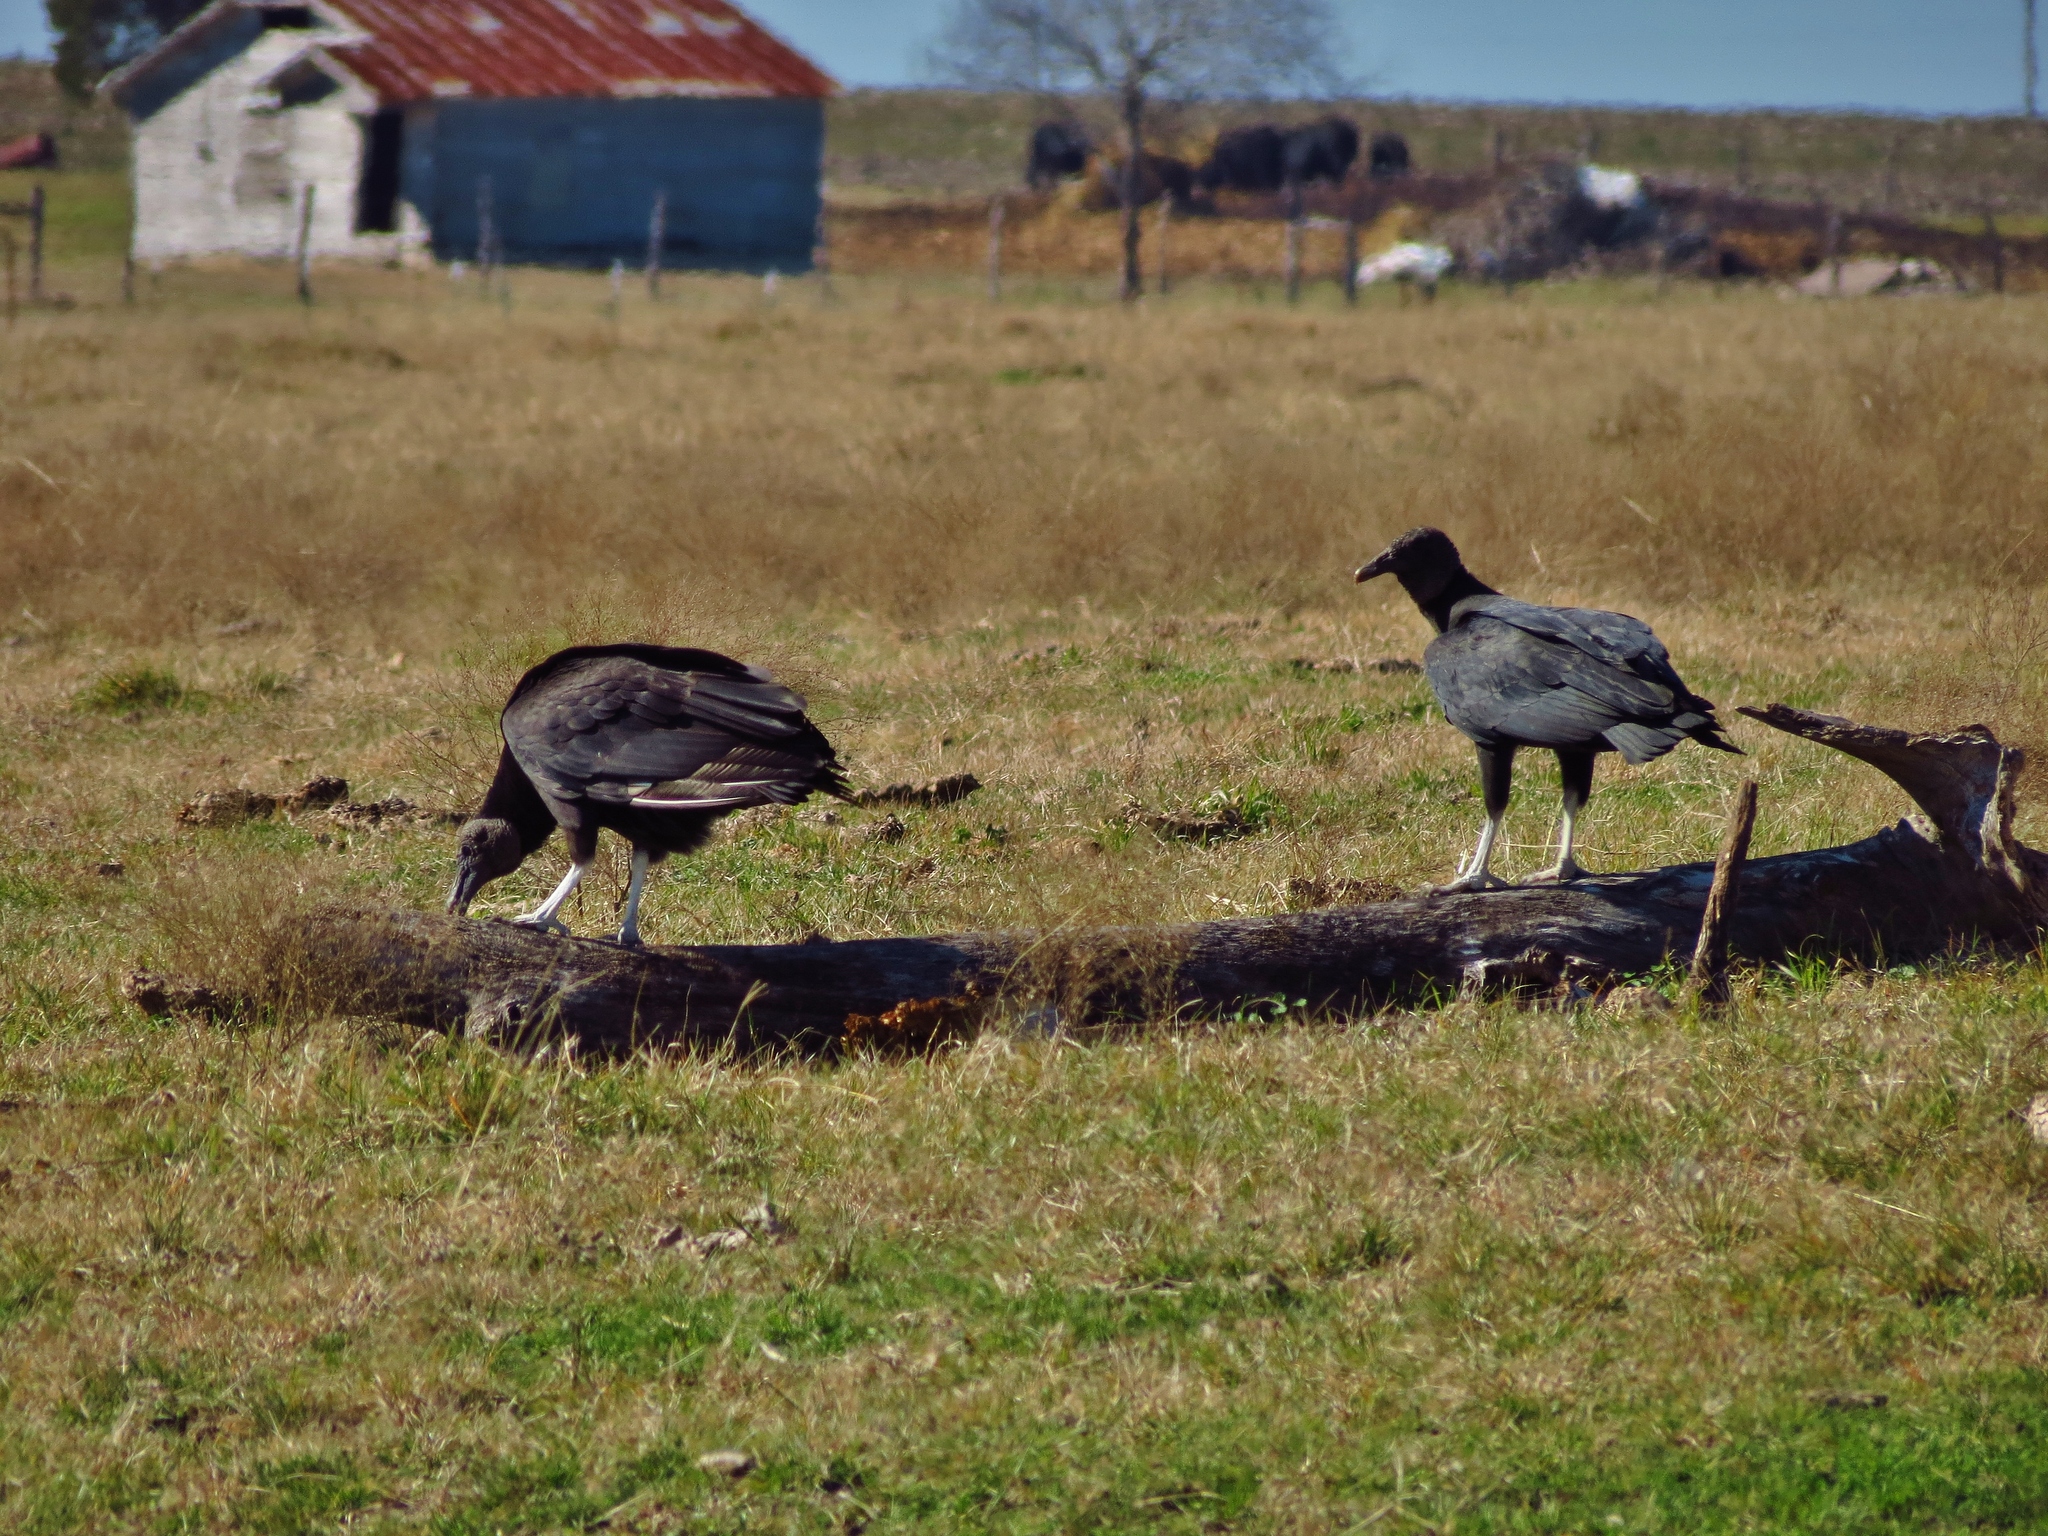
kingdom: Animalia
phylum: Chordata
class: Aves
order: Accipitriformes
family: Cathartidae
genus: Coragyps
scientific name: Coragyps atratus
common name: Black vulture
